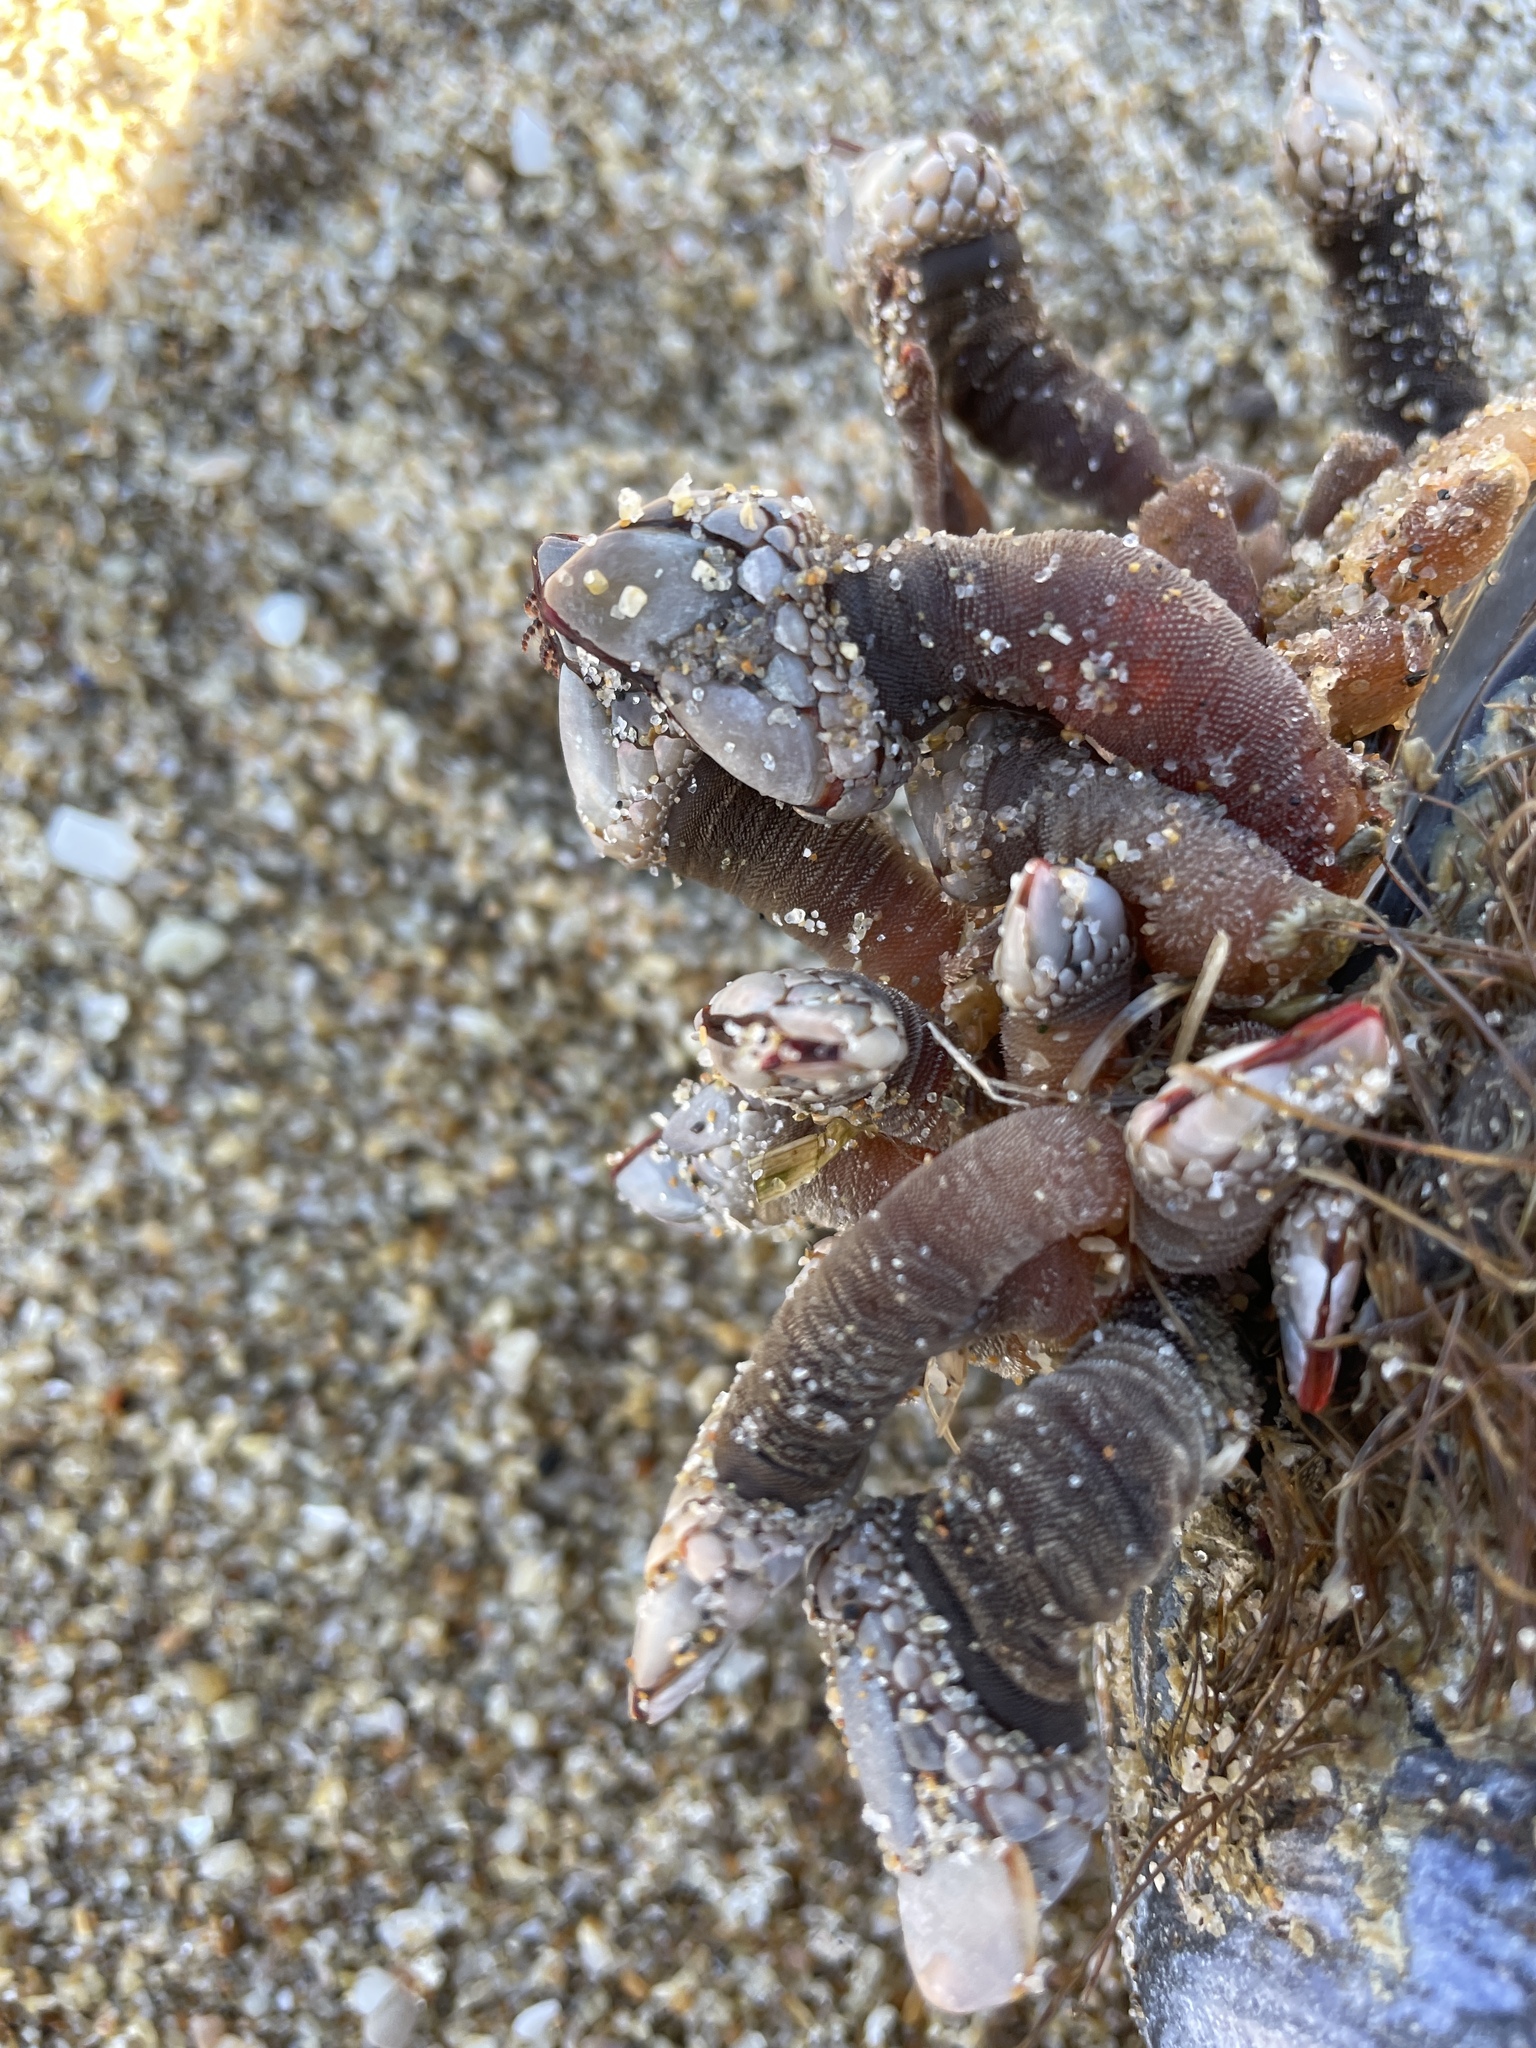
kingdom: Animalia
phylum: Arthropoda
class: Maxillopoda
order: Pedunculata
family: Pollicipedidae
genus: Pollicipes
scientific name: Pollicipes polymerus
